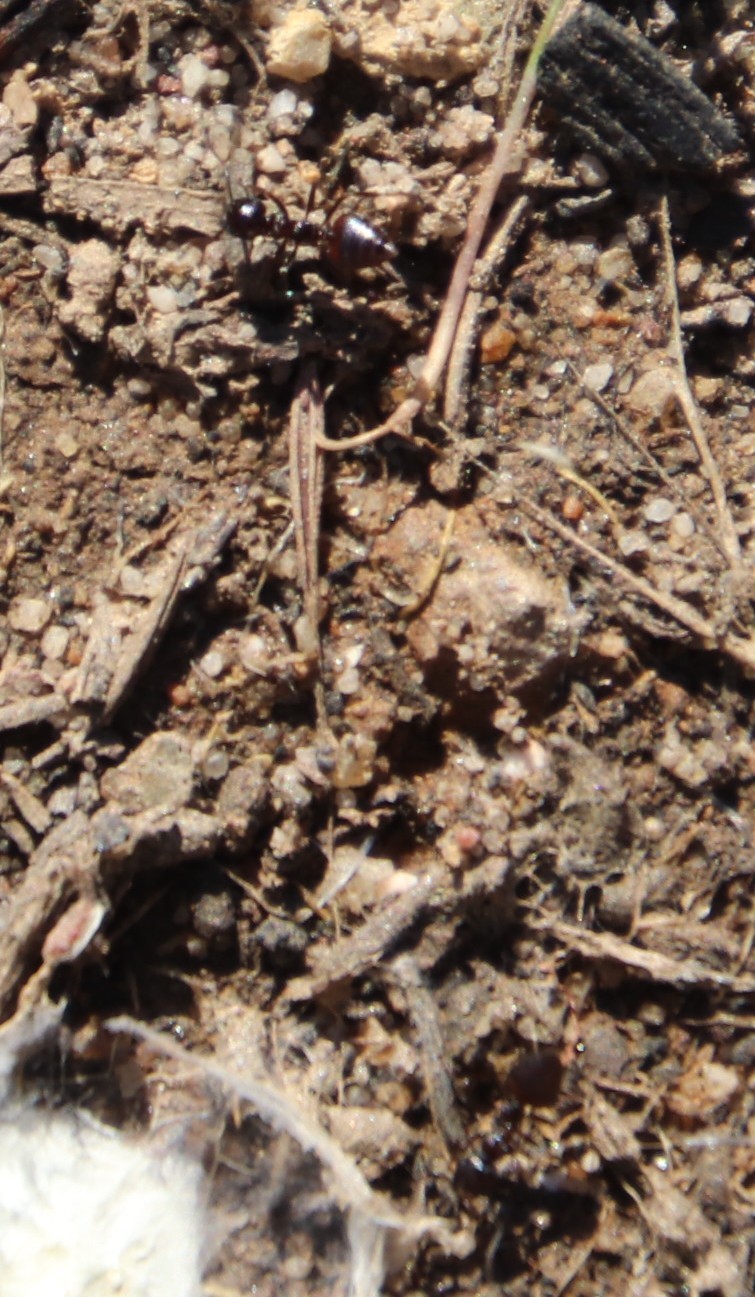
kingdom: Animalia
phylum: Arthropoda
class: Insecta
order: Hymenoptera
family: Formicidae
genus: Crematogaster
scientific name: Crematogaster capensis
